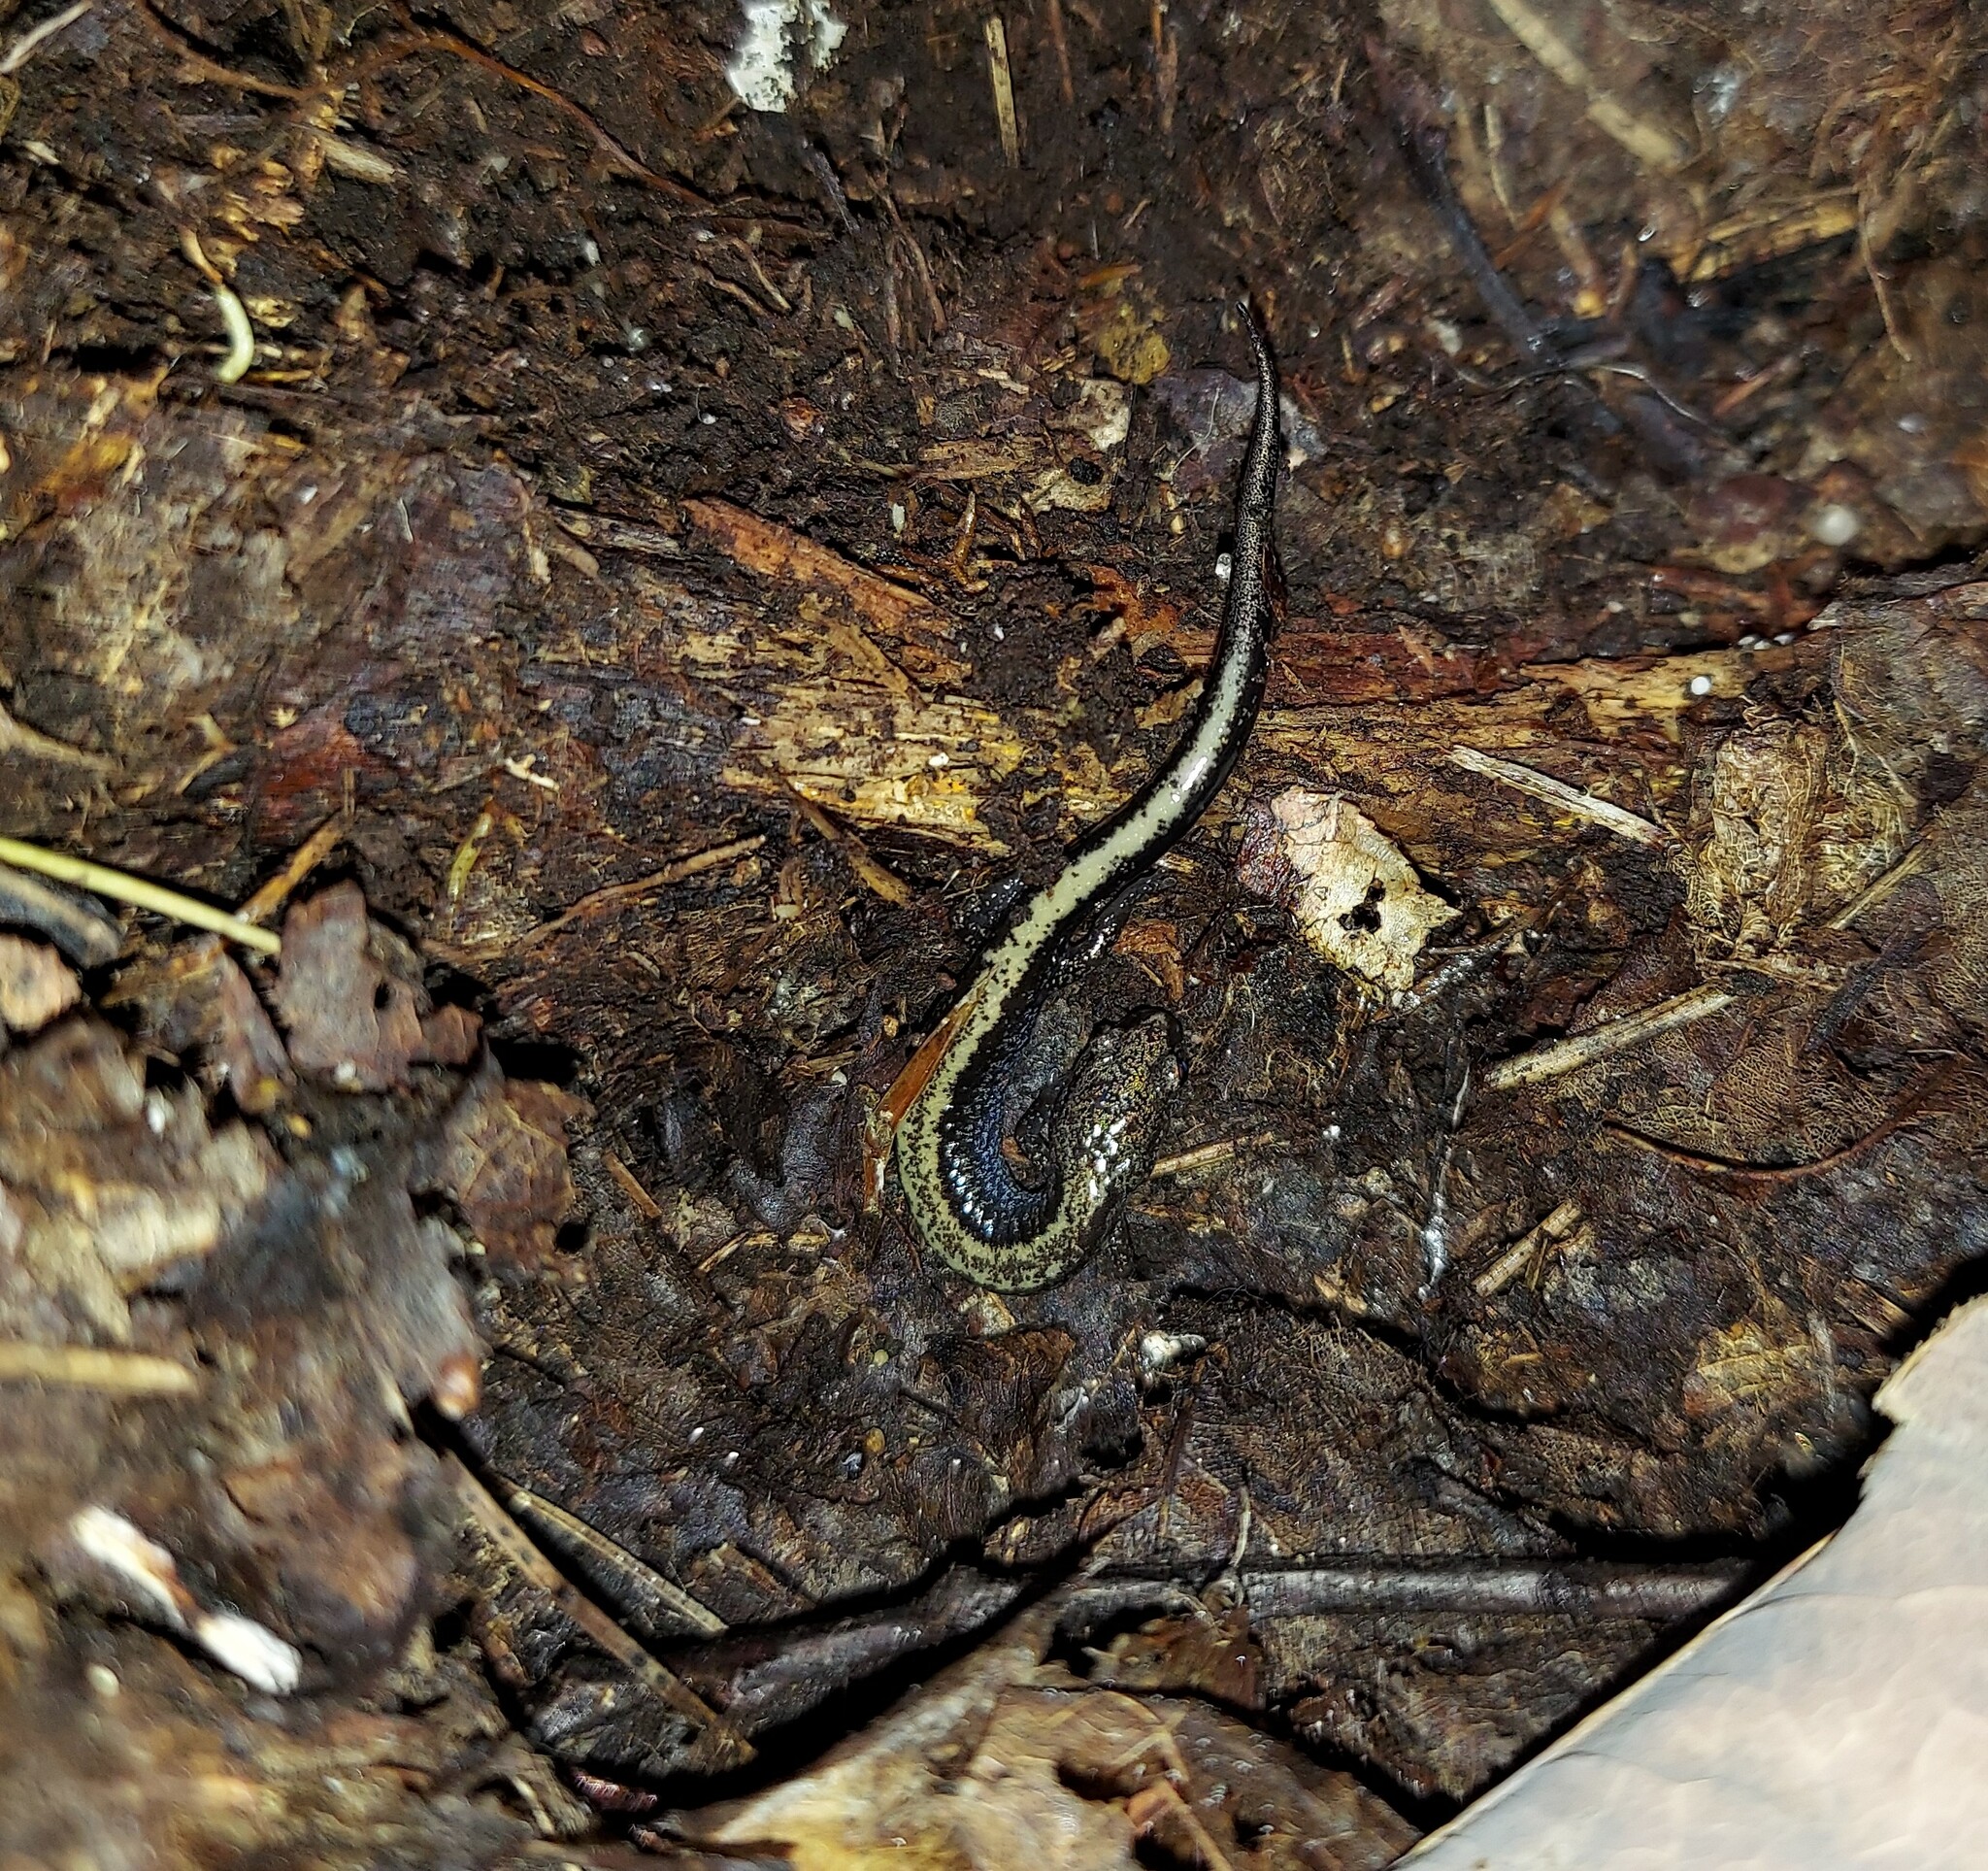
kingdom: Animalia
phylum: Chordata
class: Amphibia
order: Caudata
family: Plethodontidae
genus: Plethodon
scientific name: Plethodon cinereus
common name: Redback salamander
